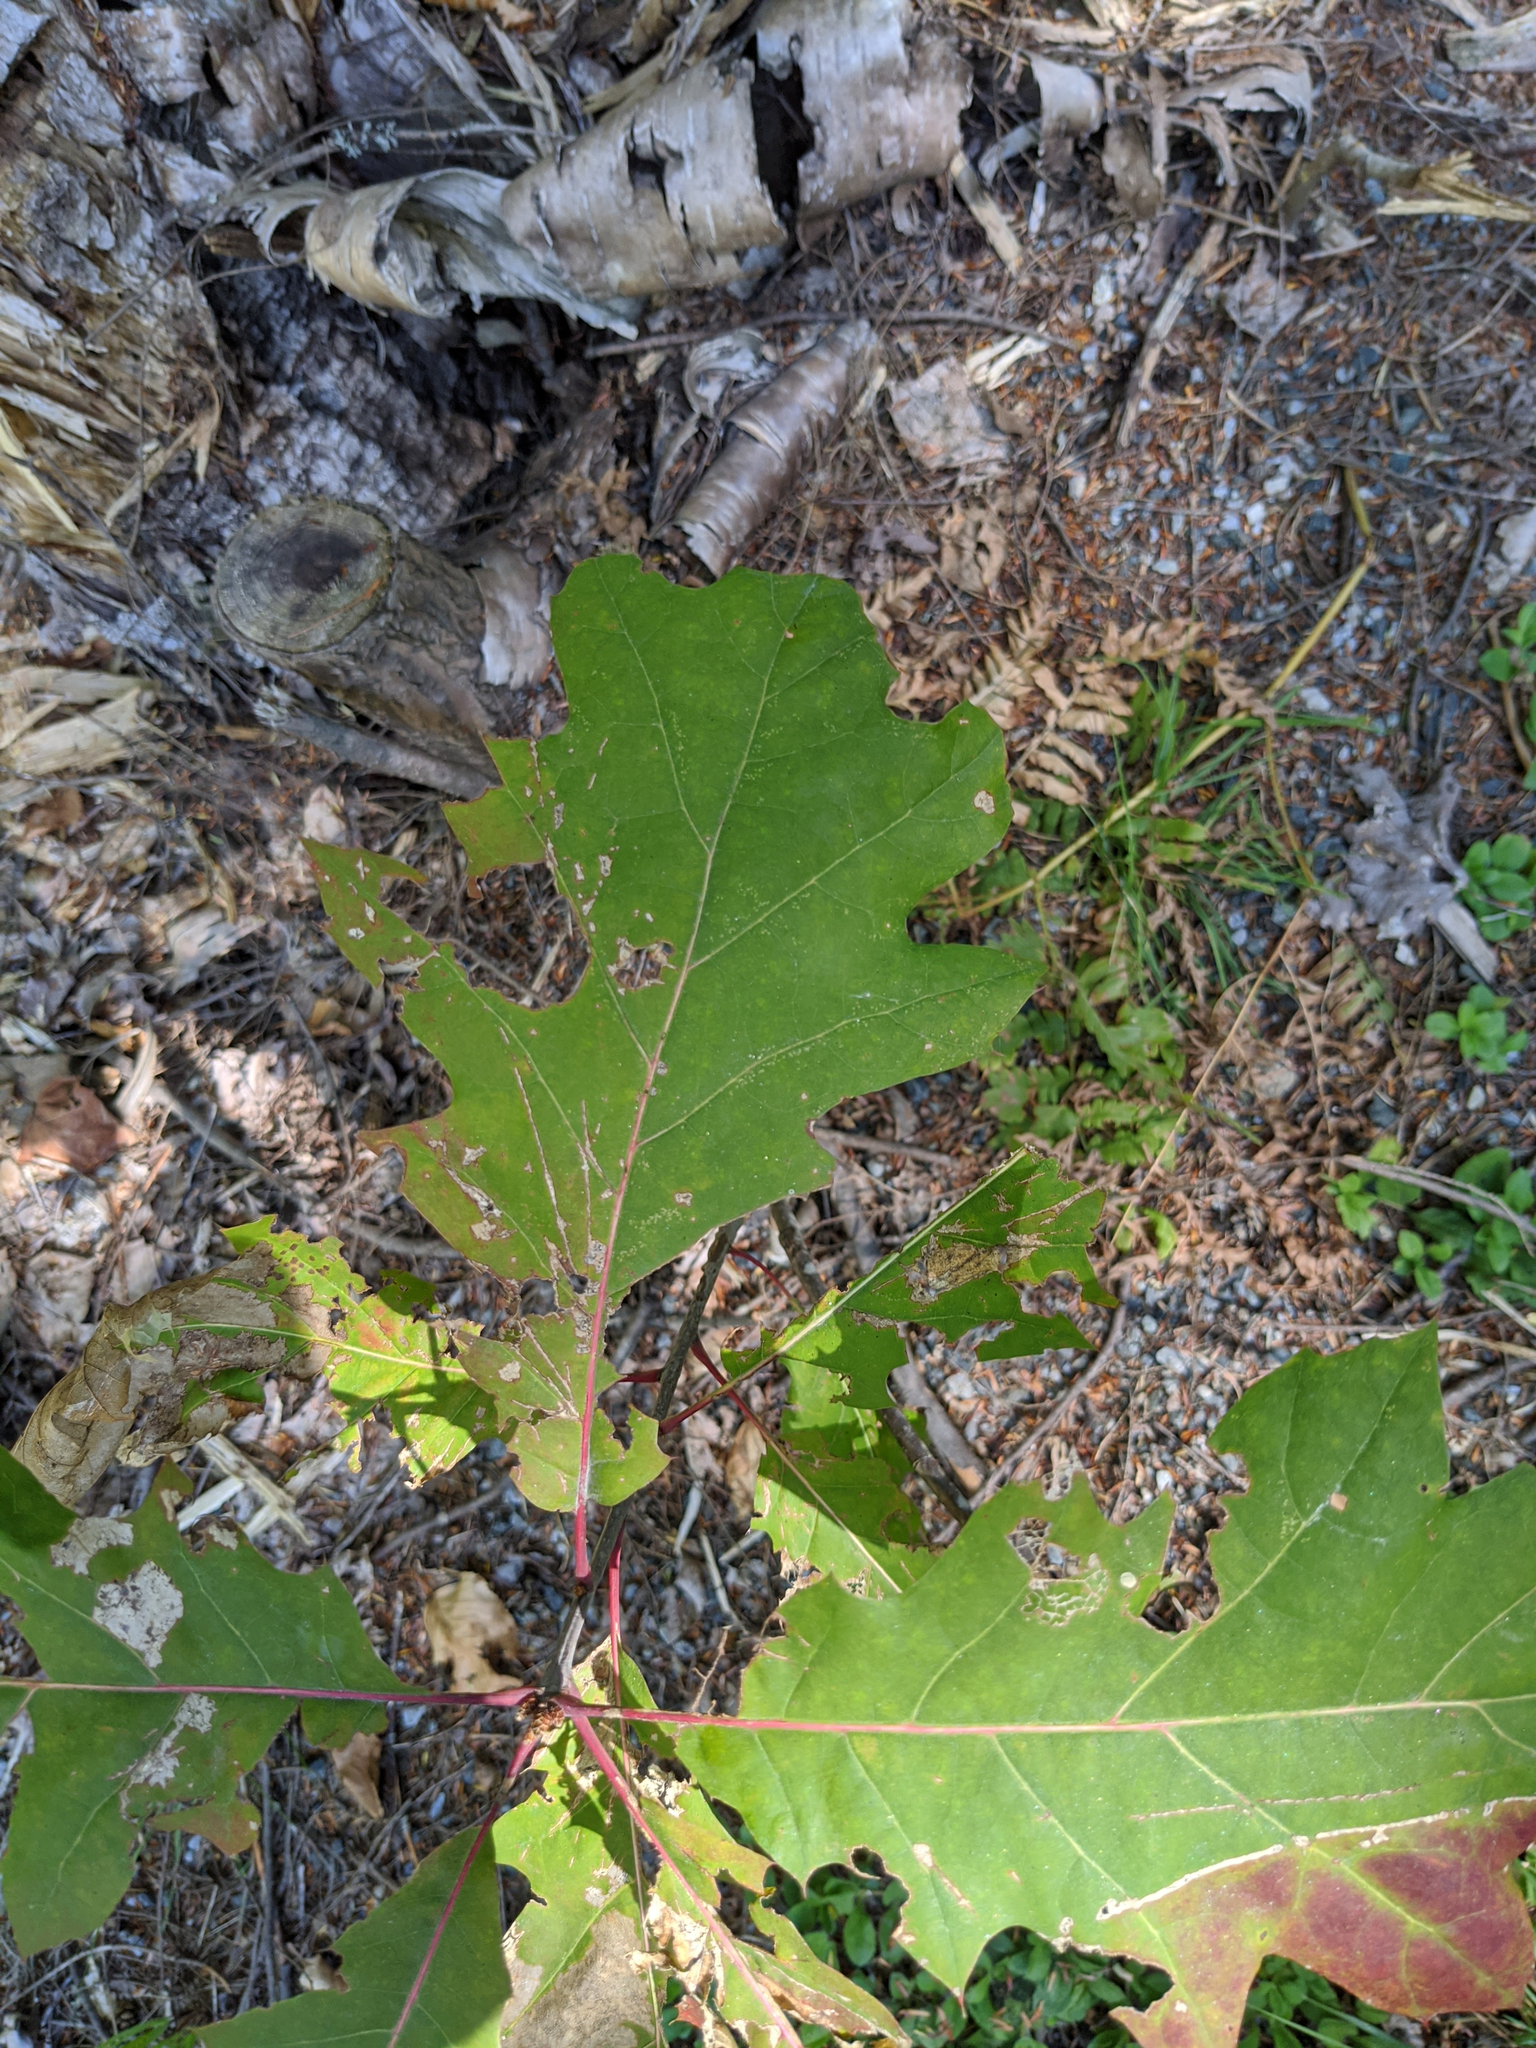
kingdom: Plantae
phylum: Tracheophyta
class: Magnoliopsida
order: Fagales
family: Fagaceae
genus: Quercus
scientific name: Quercus rubra
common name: Red oak
